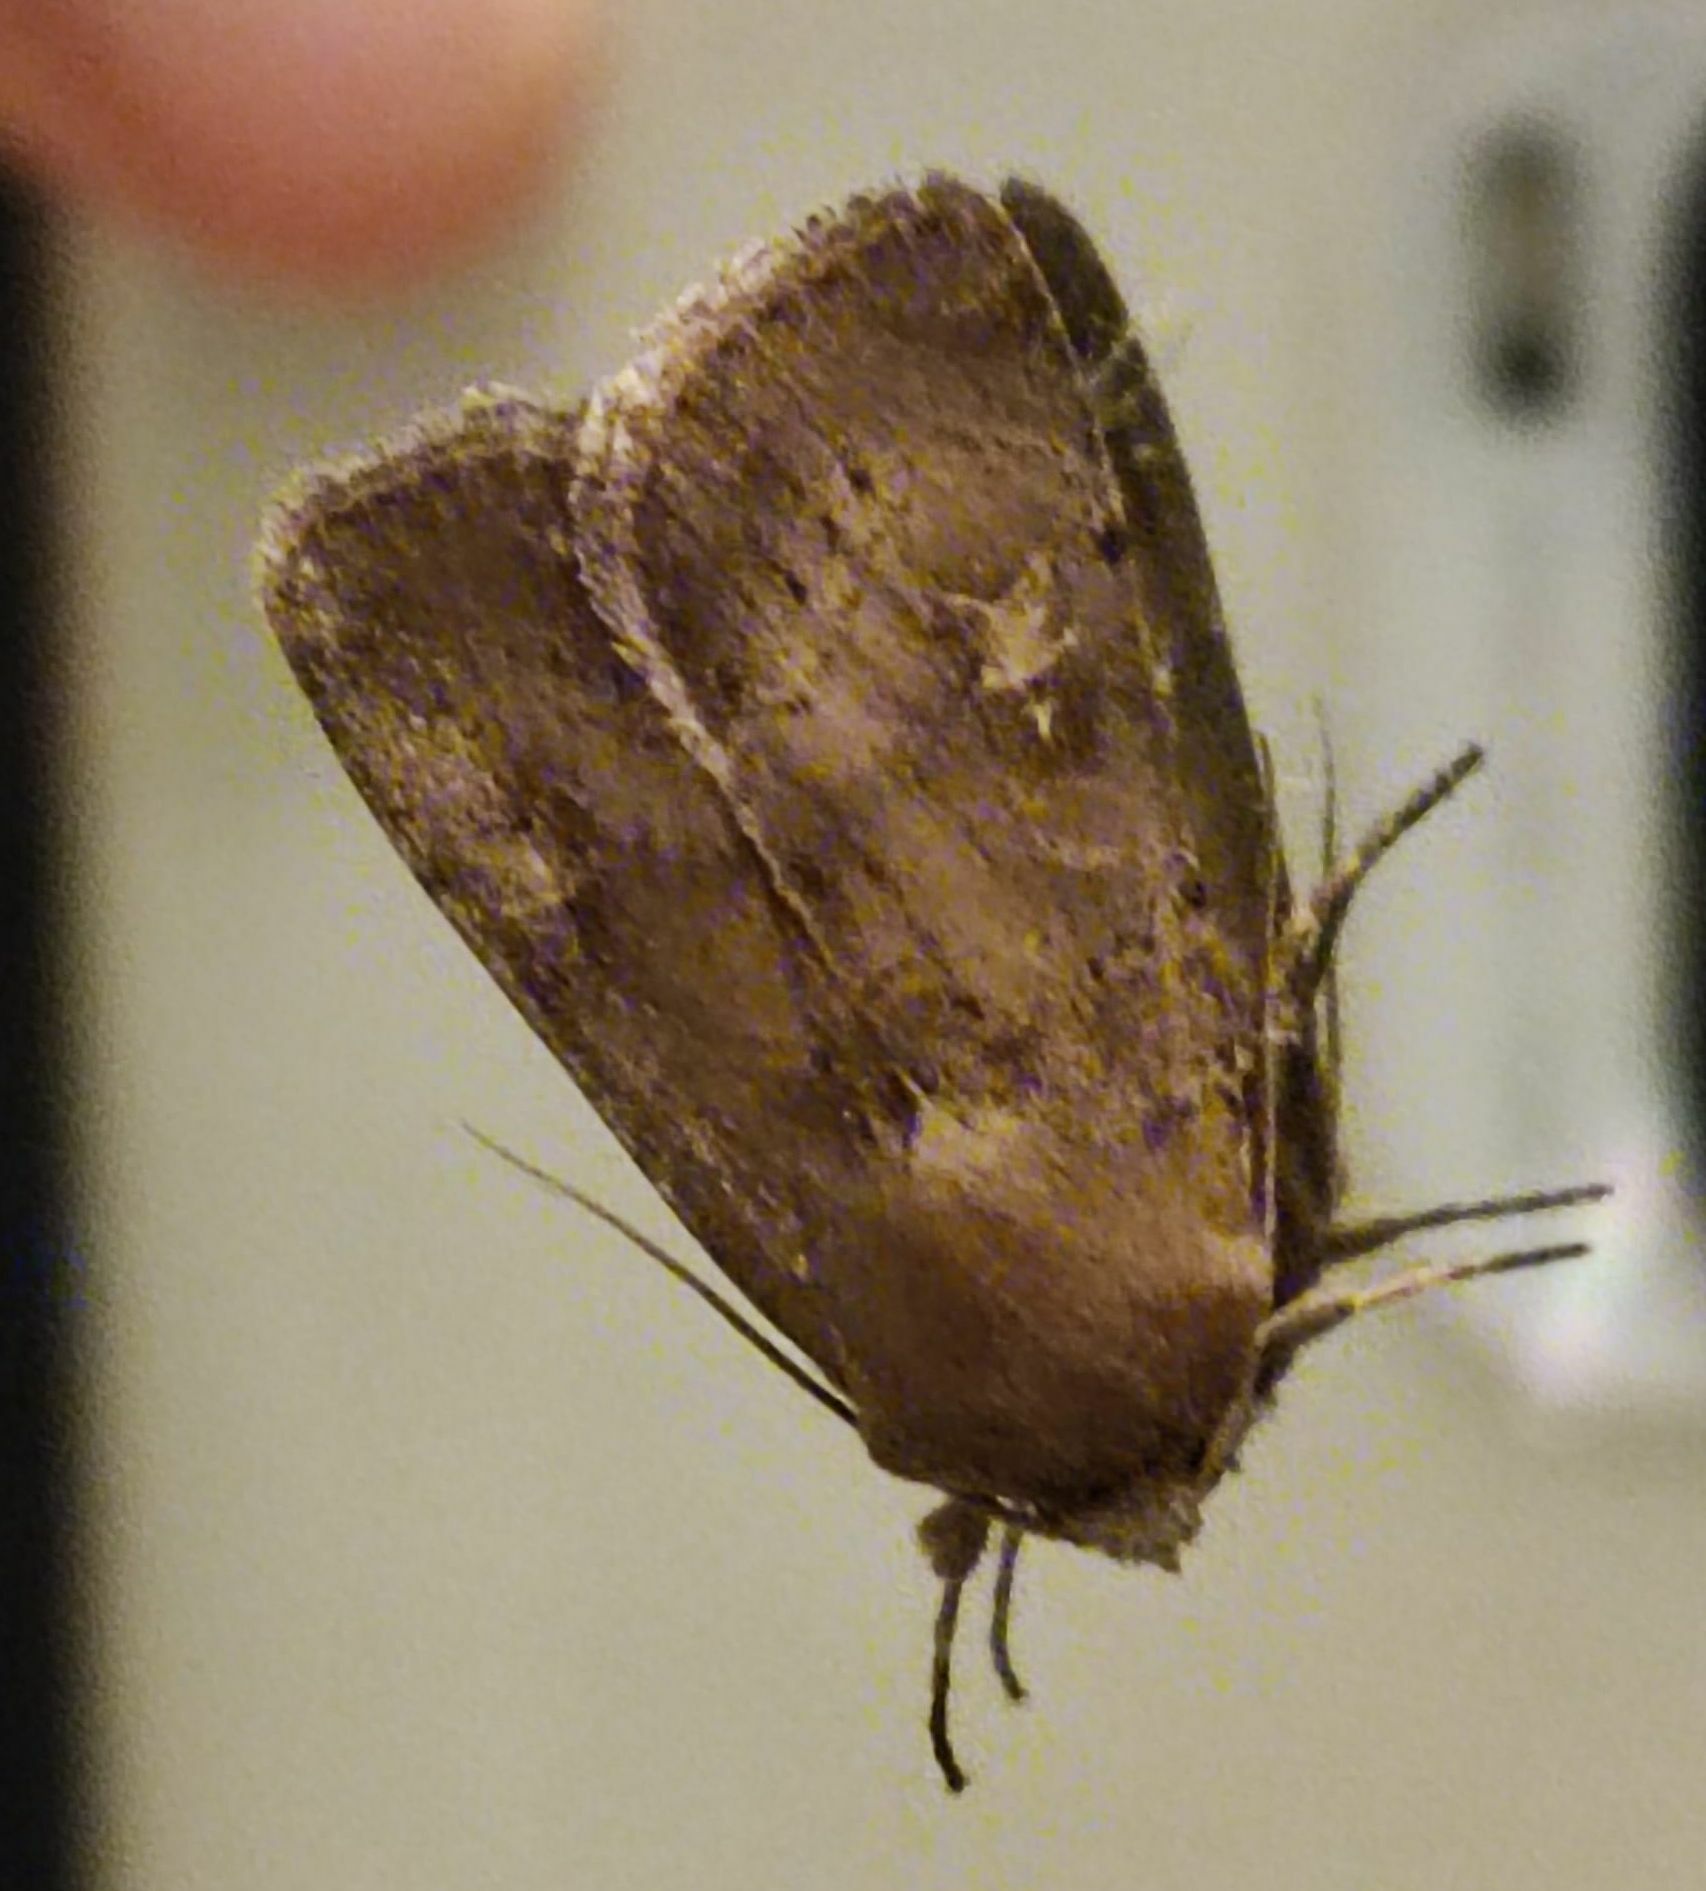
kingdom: Animalia
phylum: Arthropoda
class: Insecta
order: Lepidoptera
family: Noctuidae
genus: Xestia
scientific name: Xestia xanthographa
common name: Square-spot rustic
